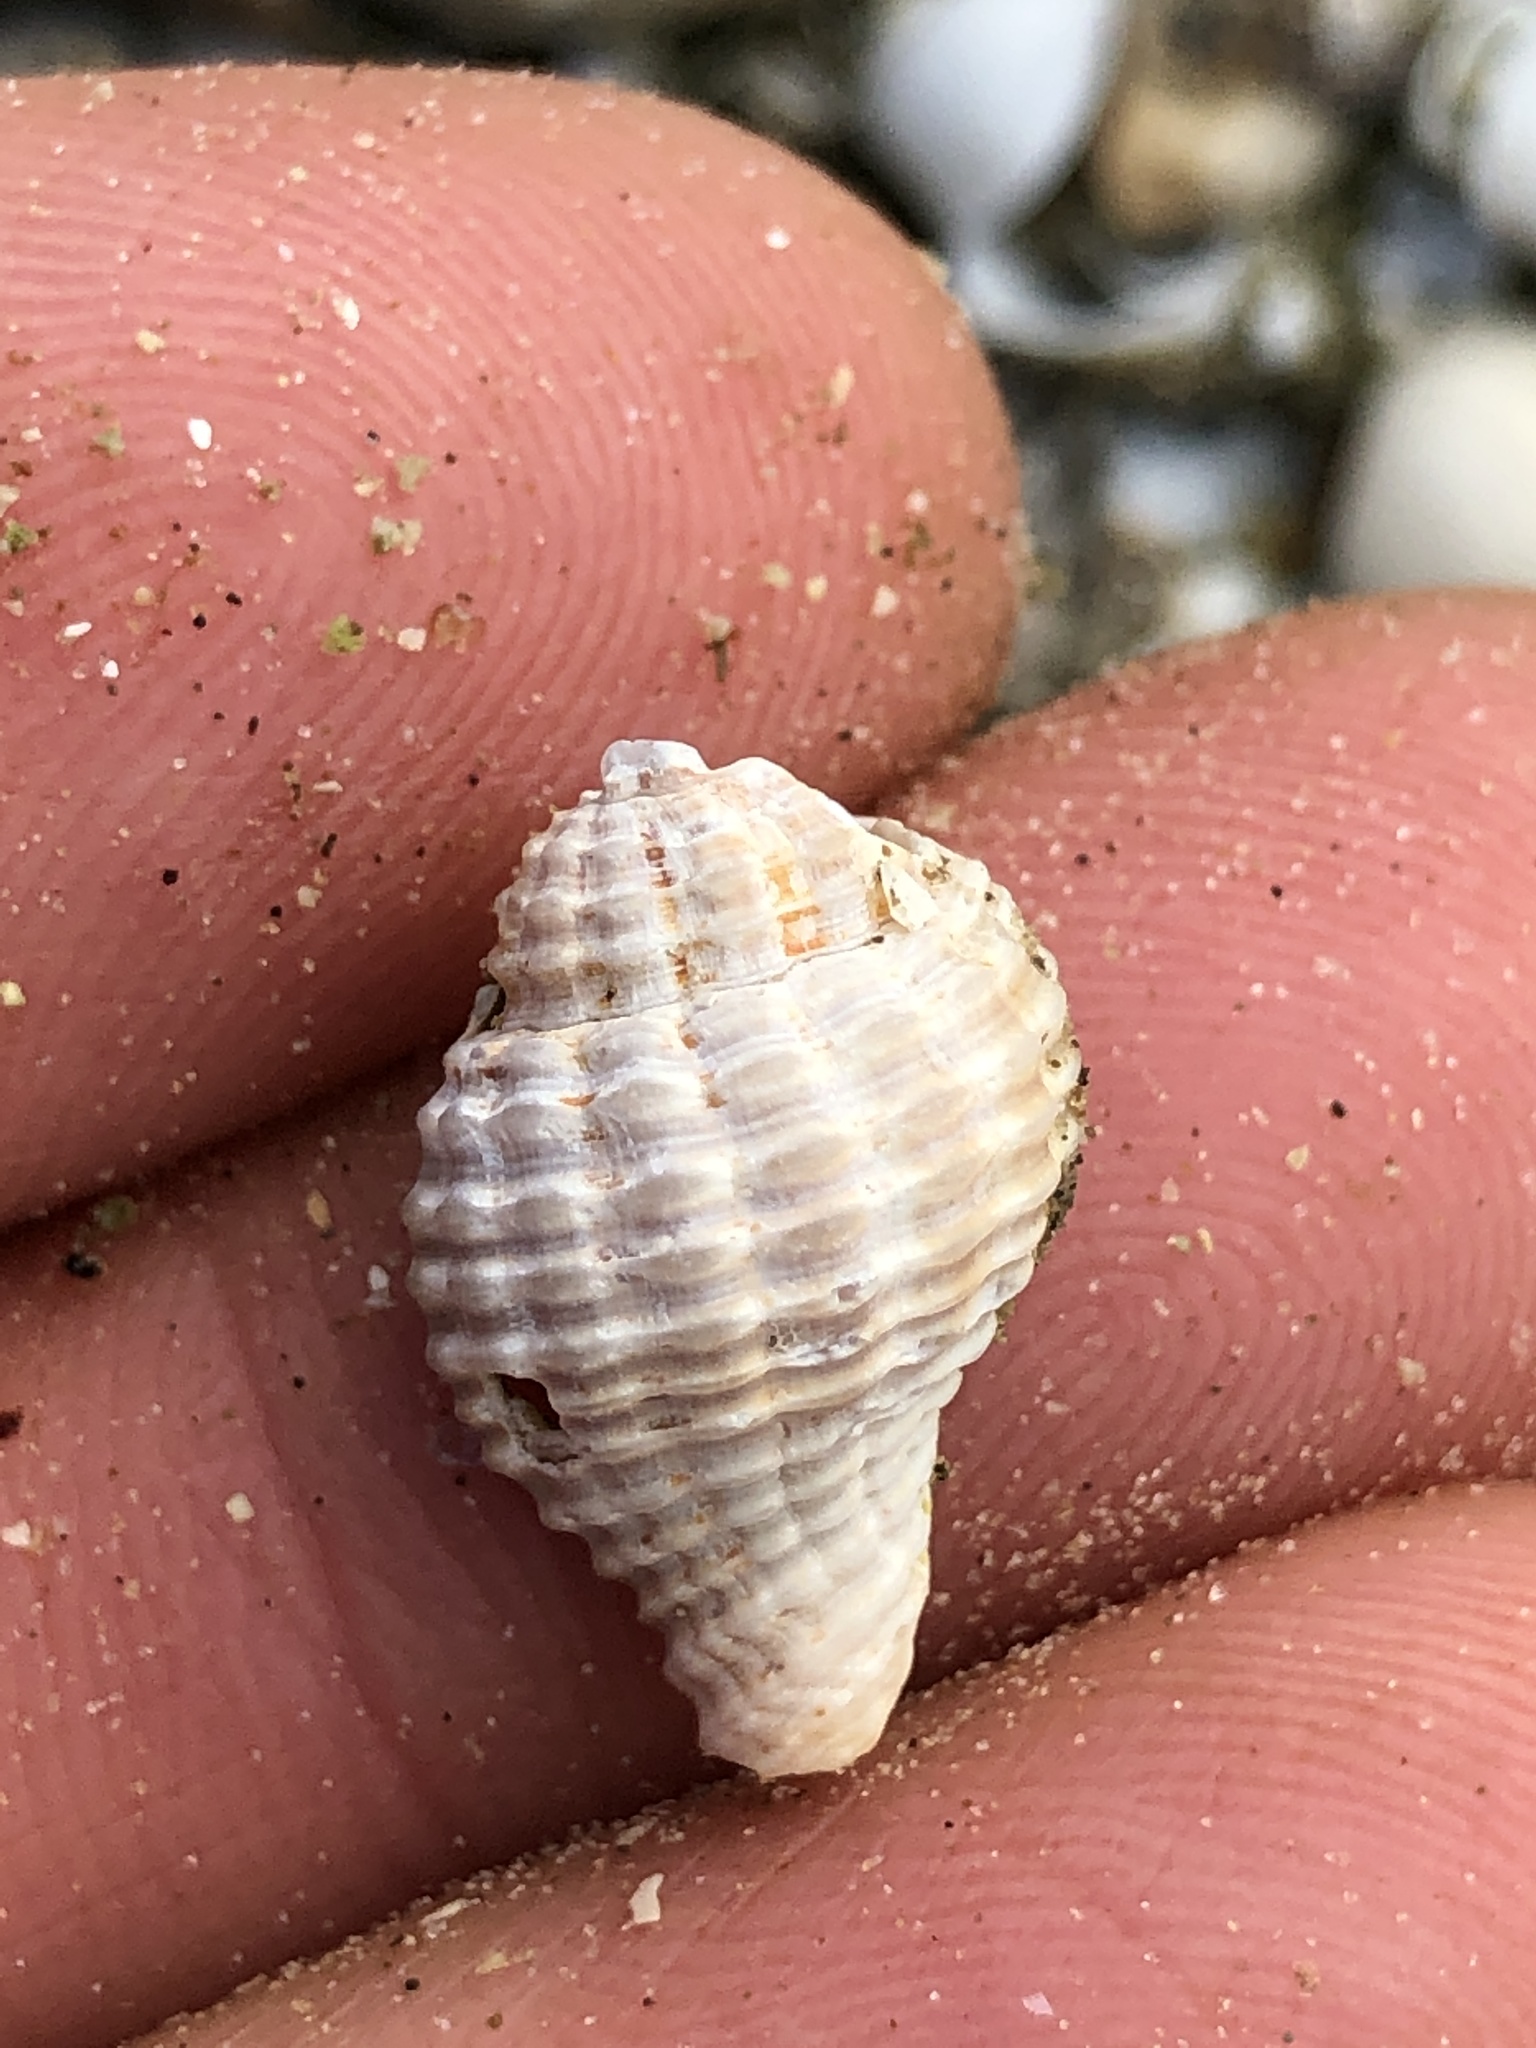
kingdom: Animalia
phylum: Mollusca
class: Gastropoda
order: Neogastropoda
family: Pisaniidae
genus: Solenosteira
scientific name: Solenosteira cancellaria
